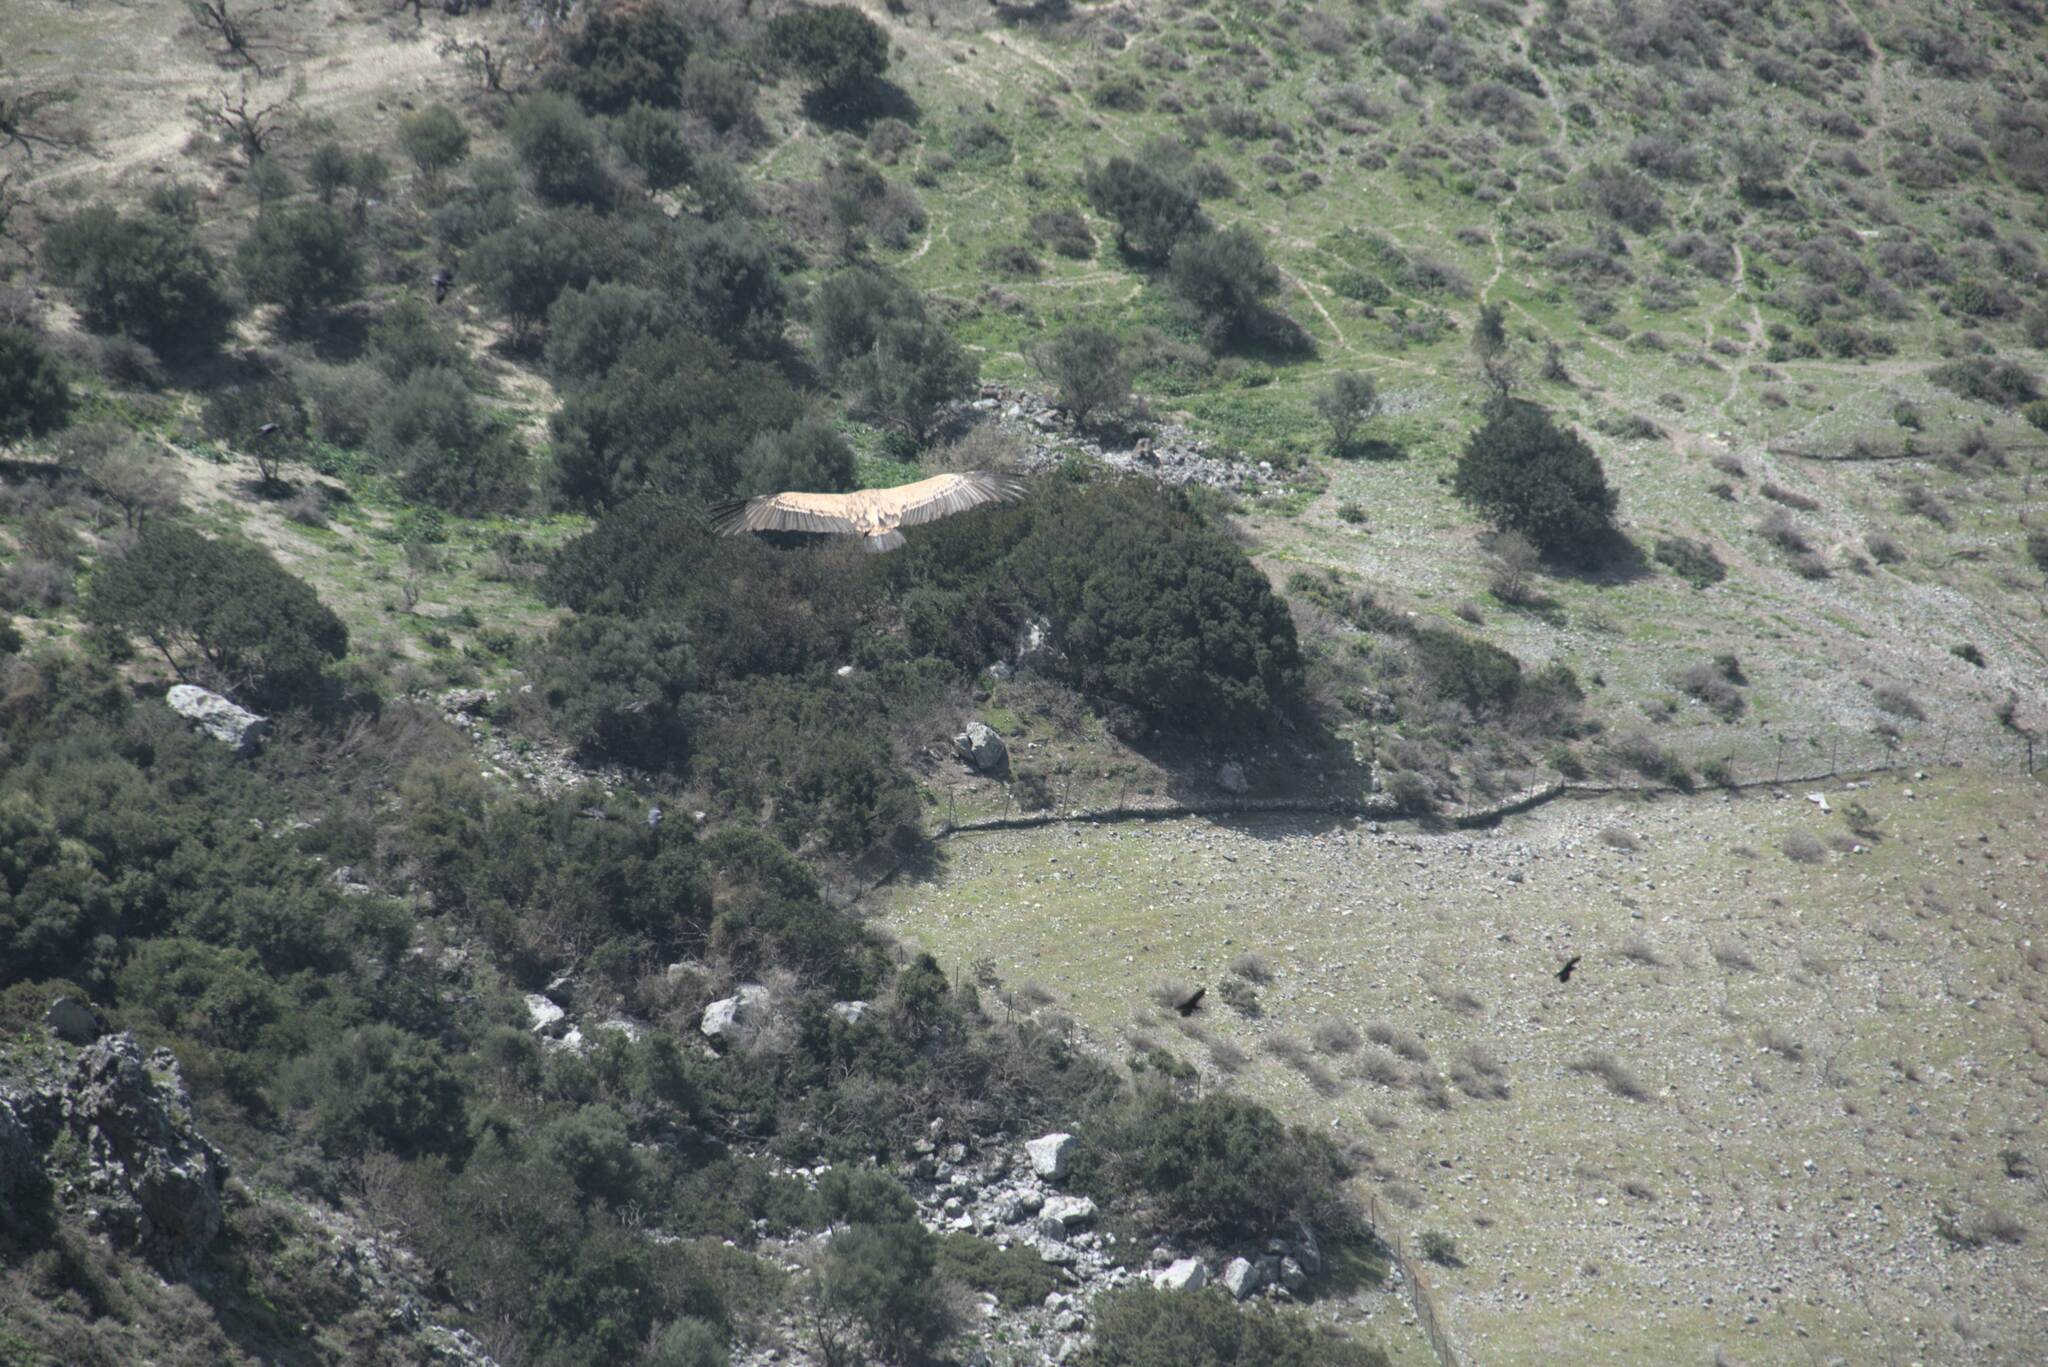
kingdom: Animalia
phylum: Chordata
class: Aves
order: Accipitriformes
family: Accipitridae
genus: Gyps
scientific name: Gyps fulvus
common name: Griffon vulture
